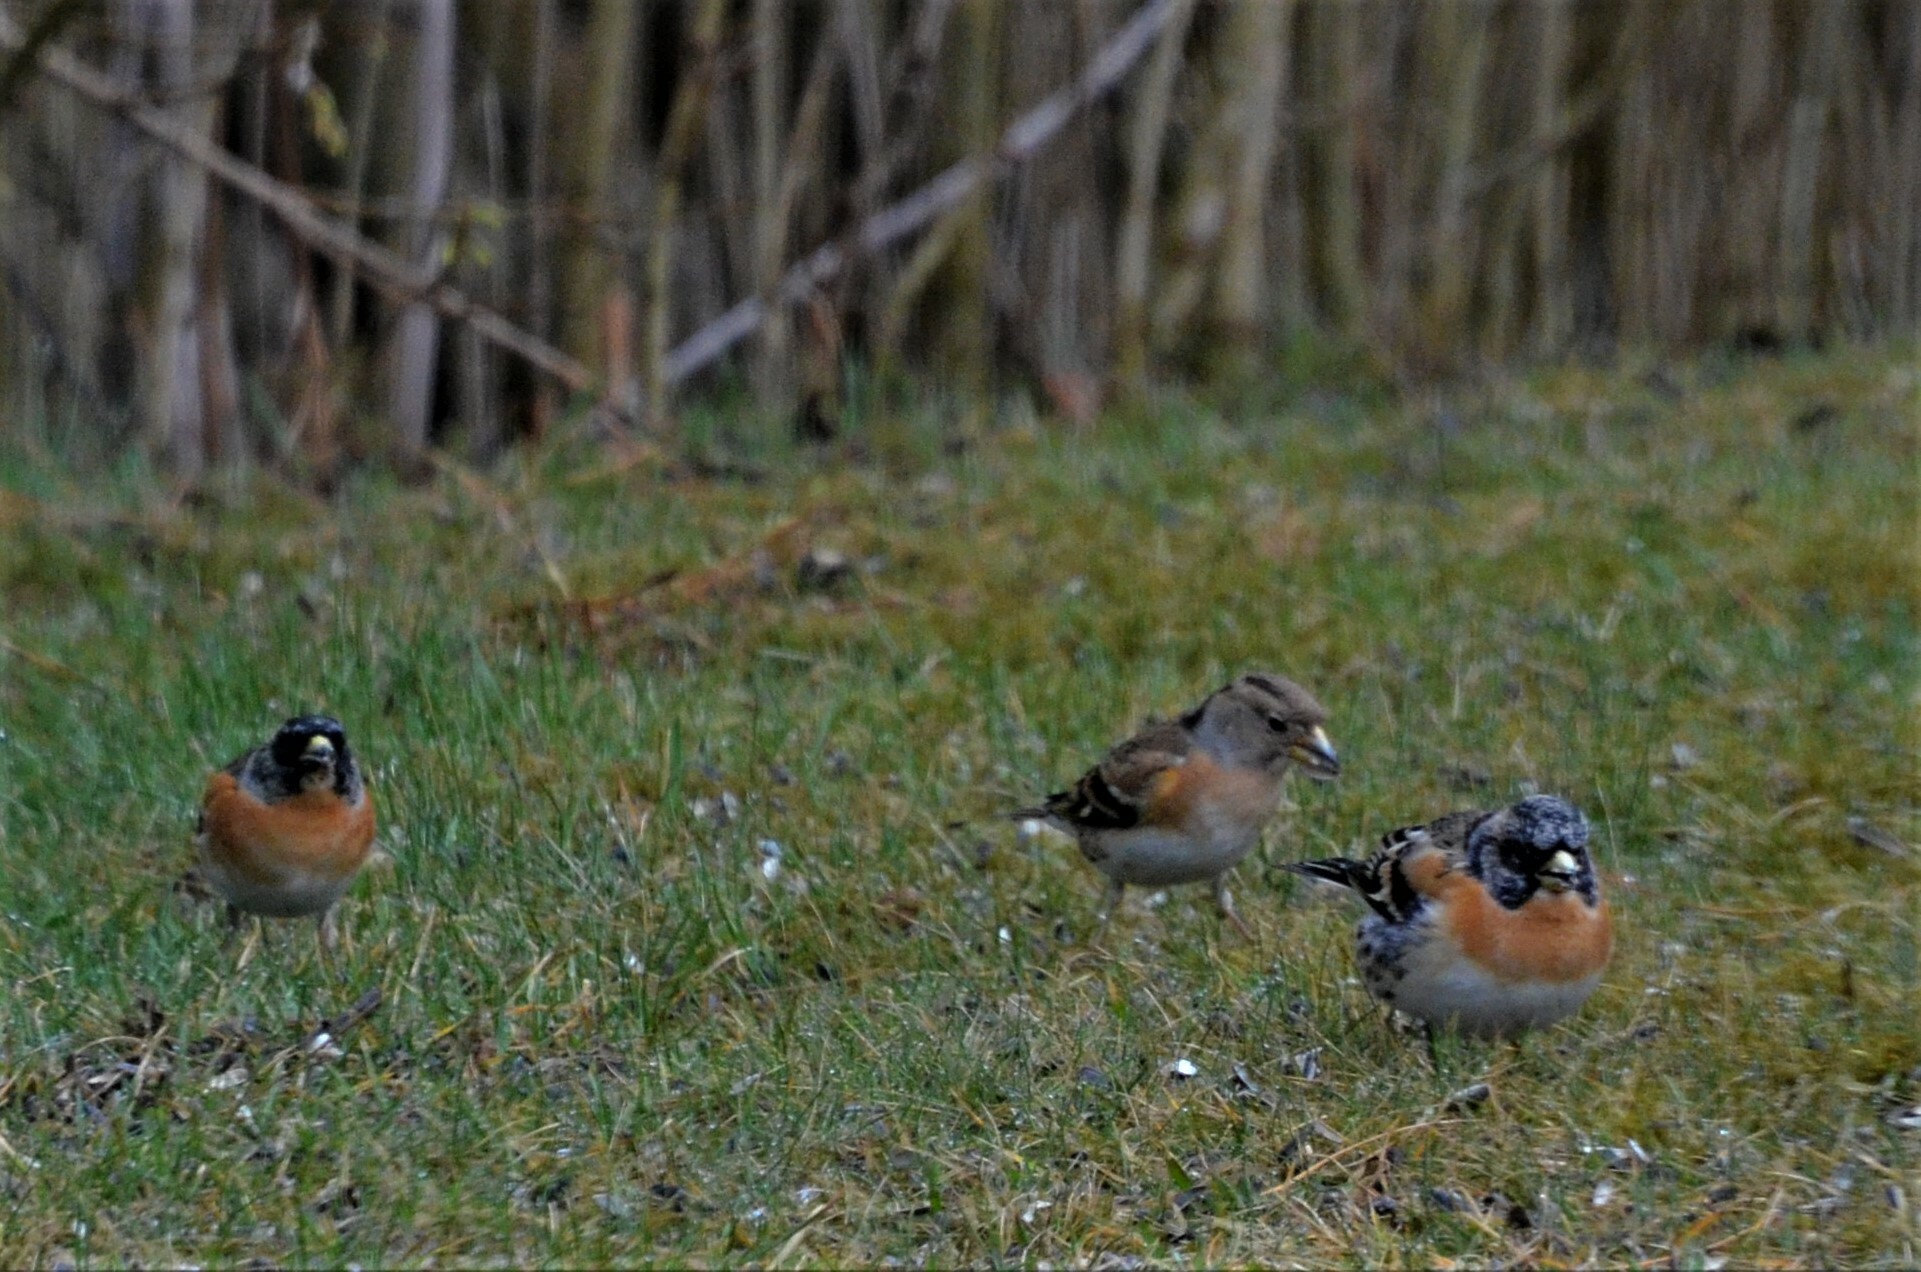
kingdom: Animalia
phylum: Chordata
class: Aves
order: Passeriformes
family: Fringillidae
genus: Fringilla
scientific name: Fringilla montifringilla
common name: Brambling
